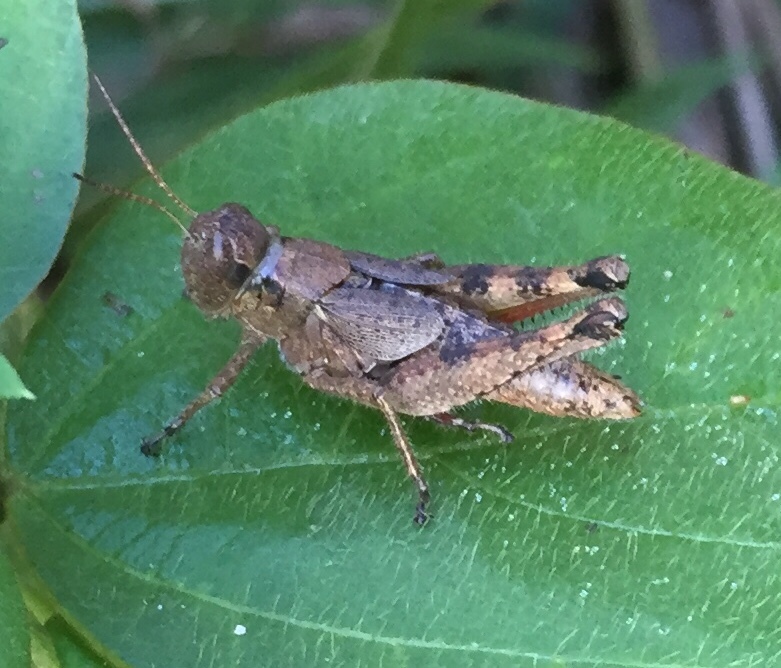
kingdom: Animalia
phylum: Arthropoda
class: Insecta
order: Orthoptera
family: Acrididae
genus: Melanoplus
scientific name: Melanoplus scudderi
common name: Scudder's short-winged locust
